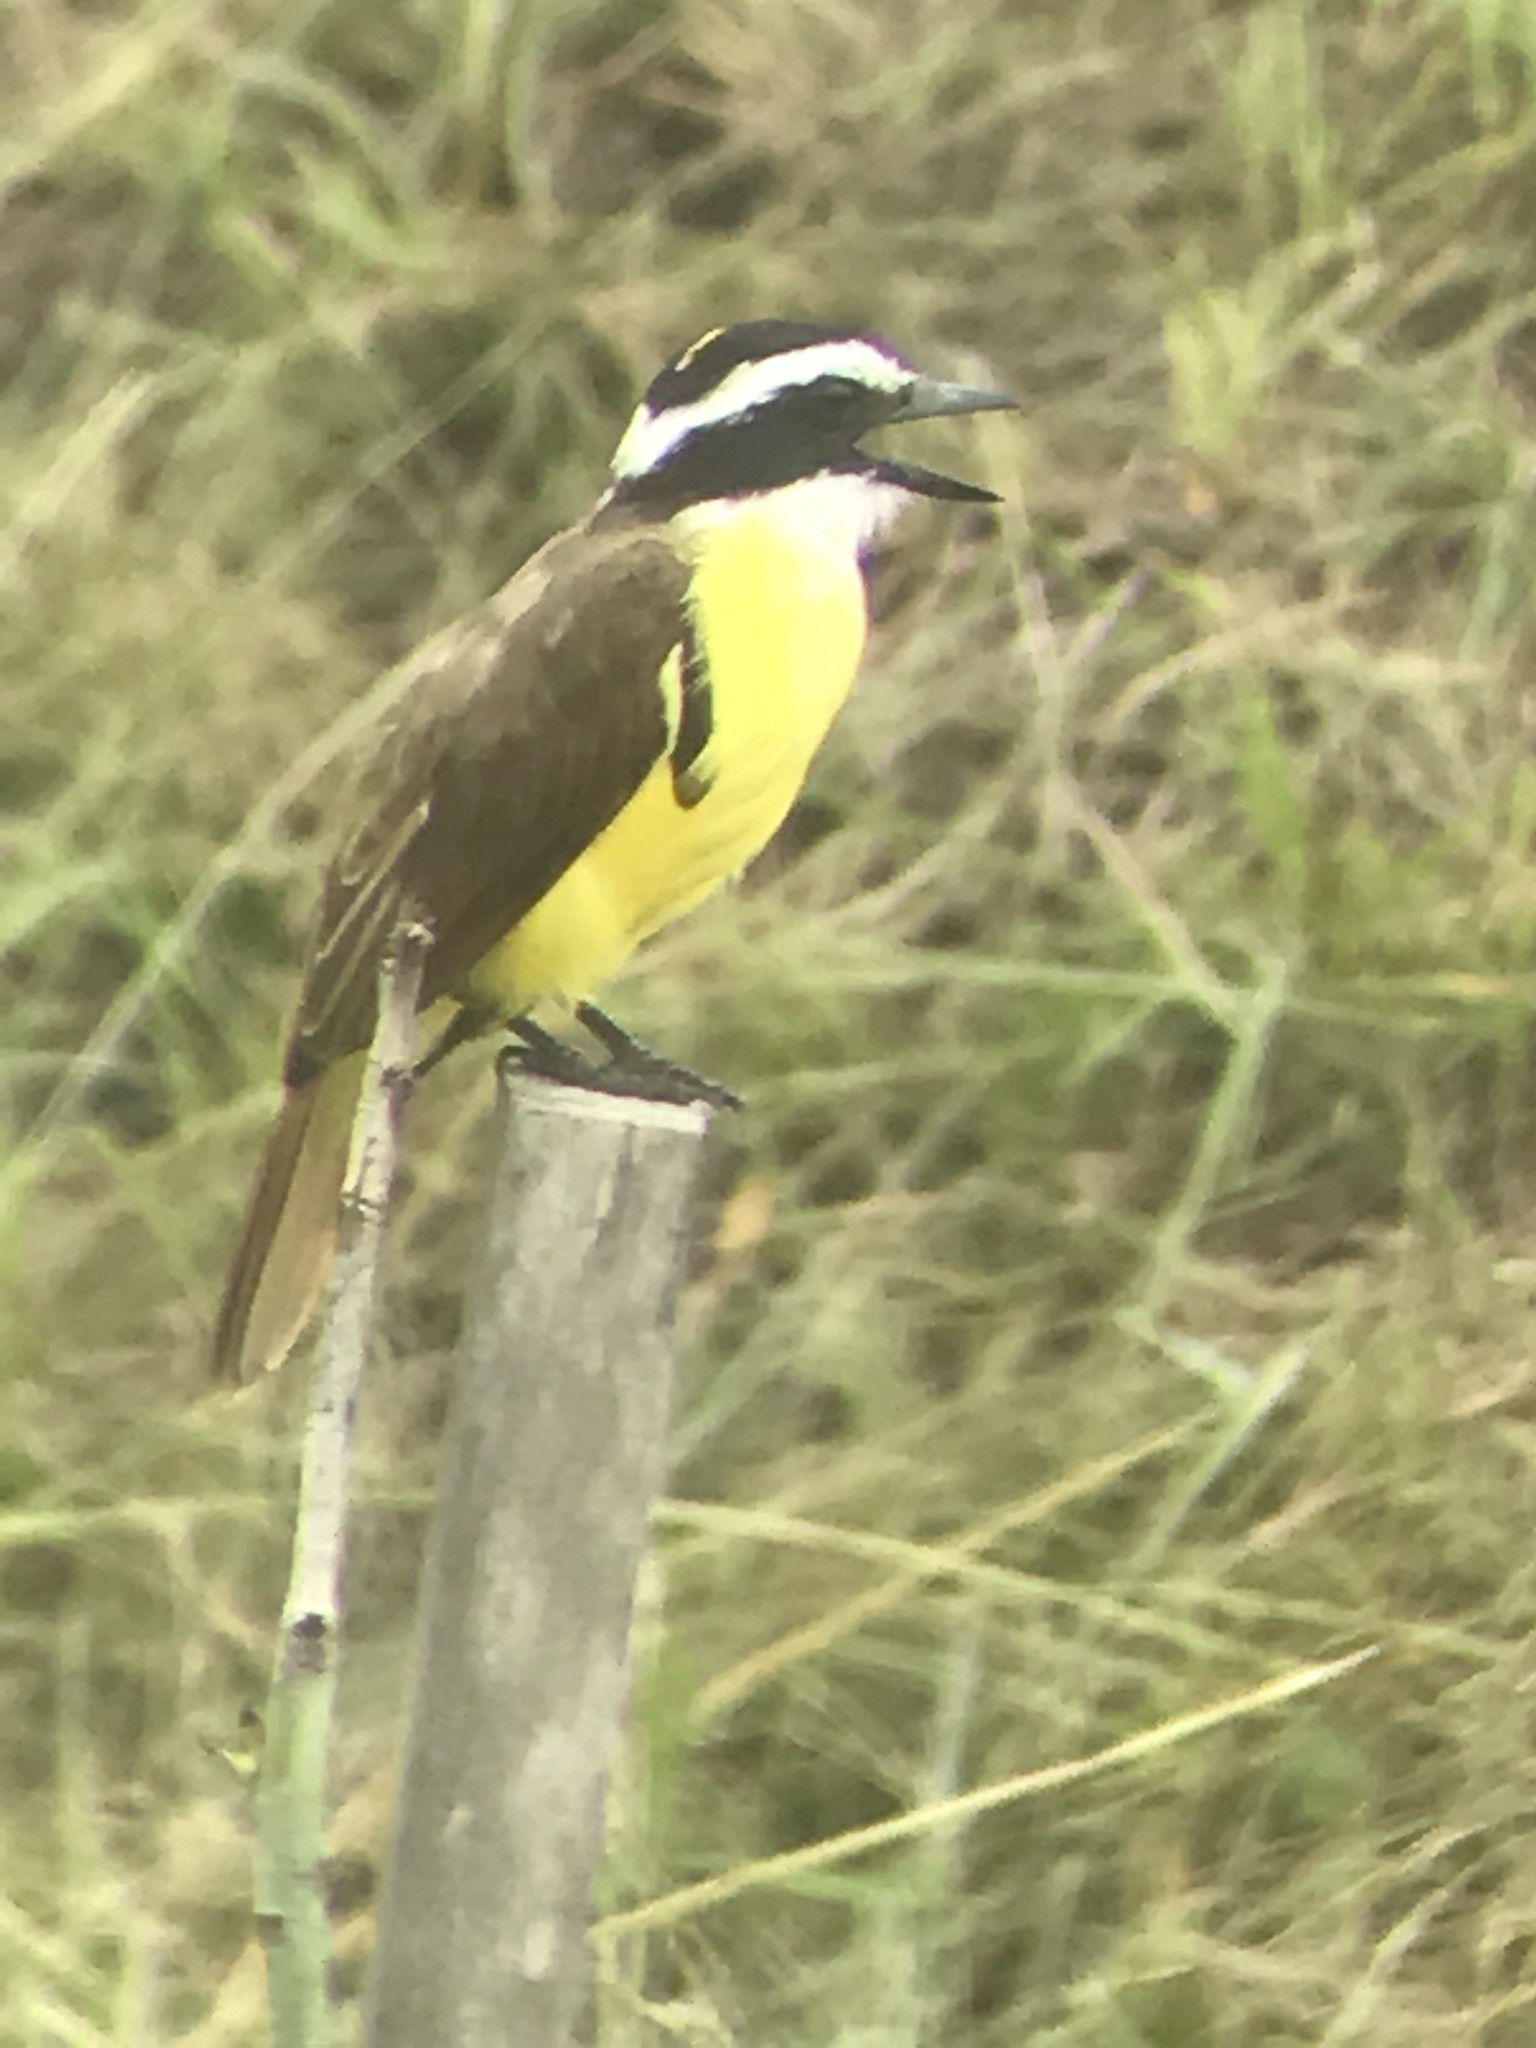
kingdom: Animalia
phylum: Chordata
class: Aves
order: Passeriformes
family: Tyrannidae
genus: Pitangus
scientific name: Pitangus sulphuratus
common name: Great kiskadee
